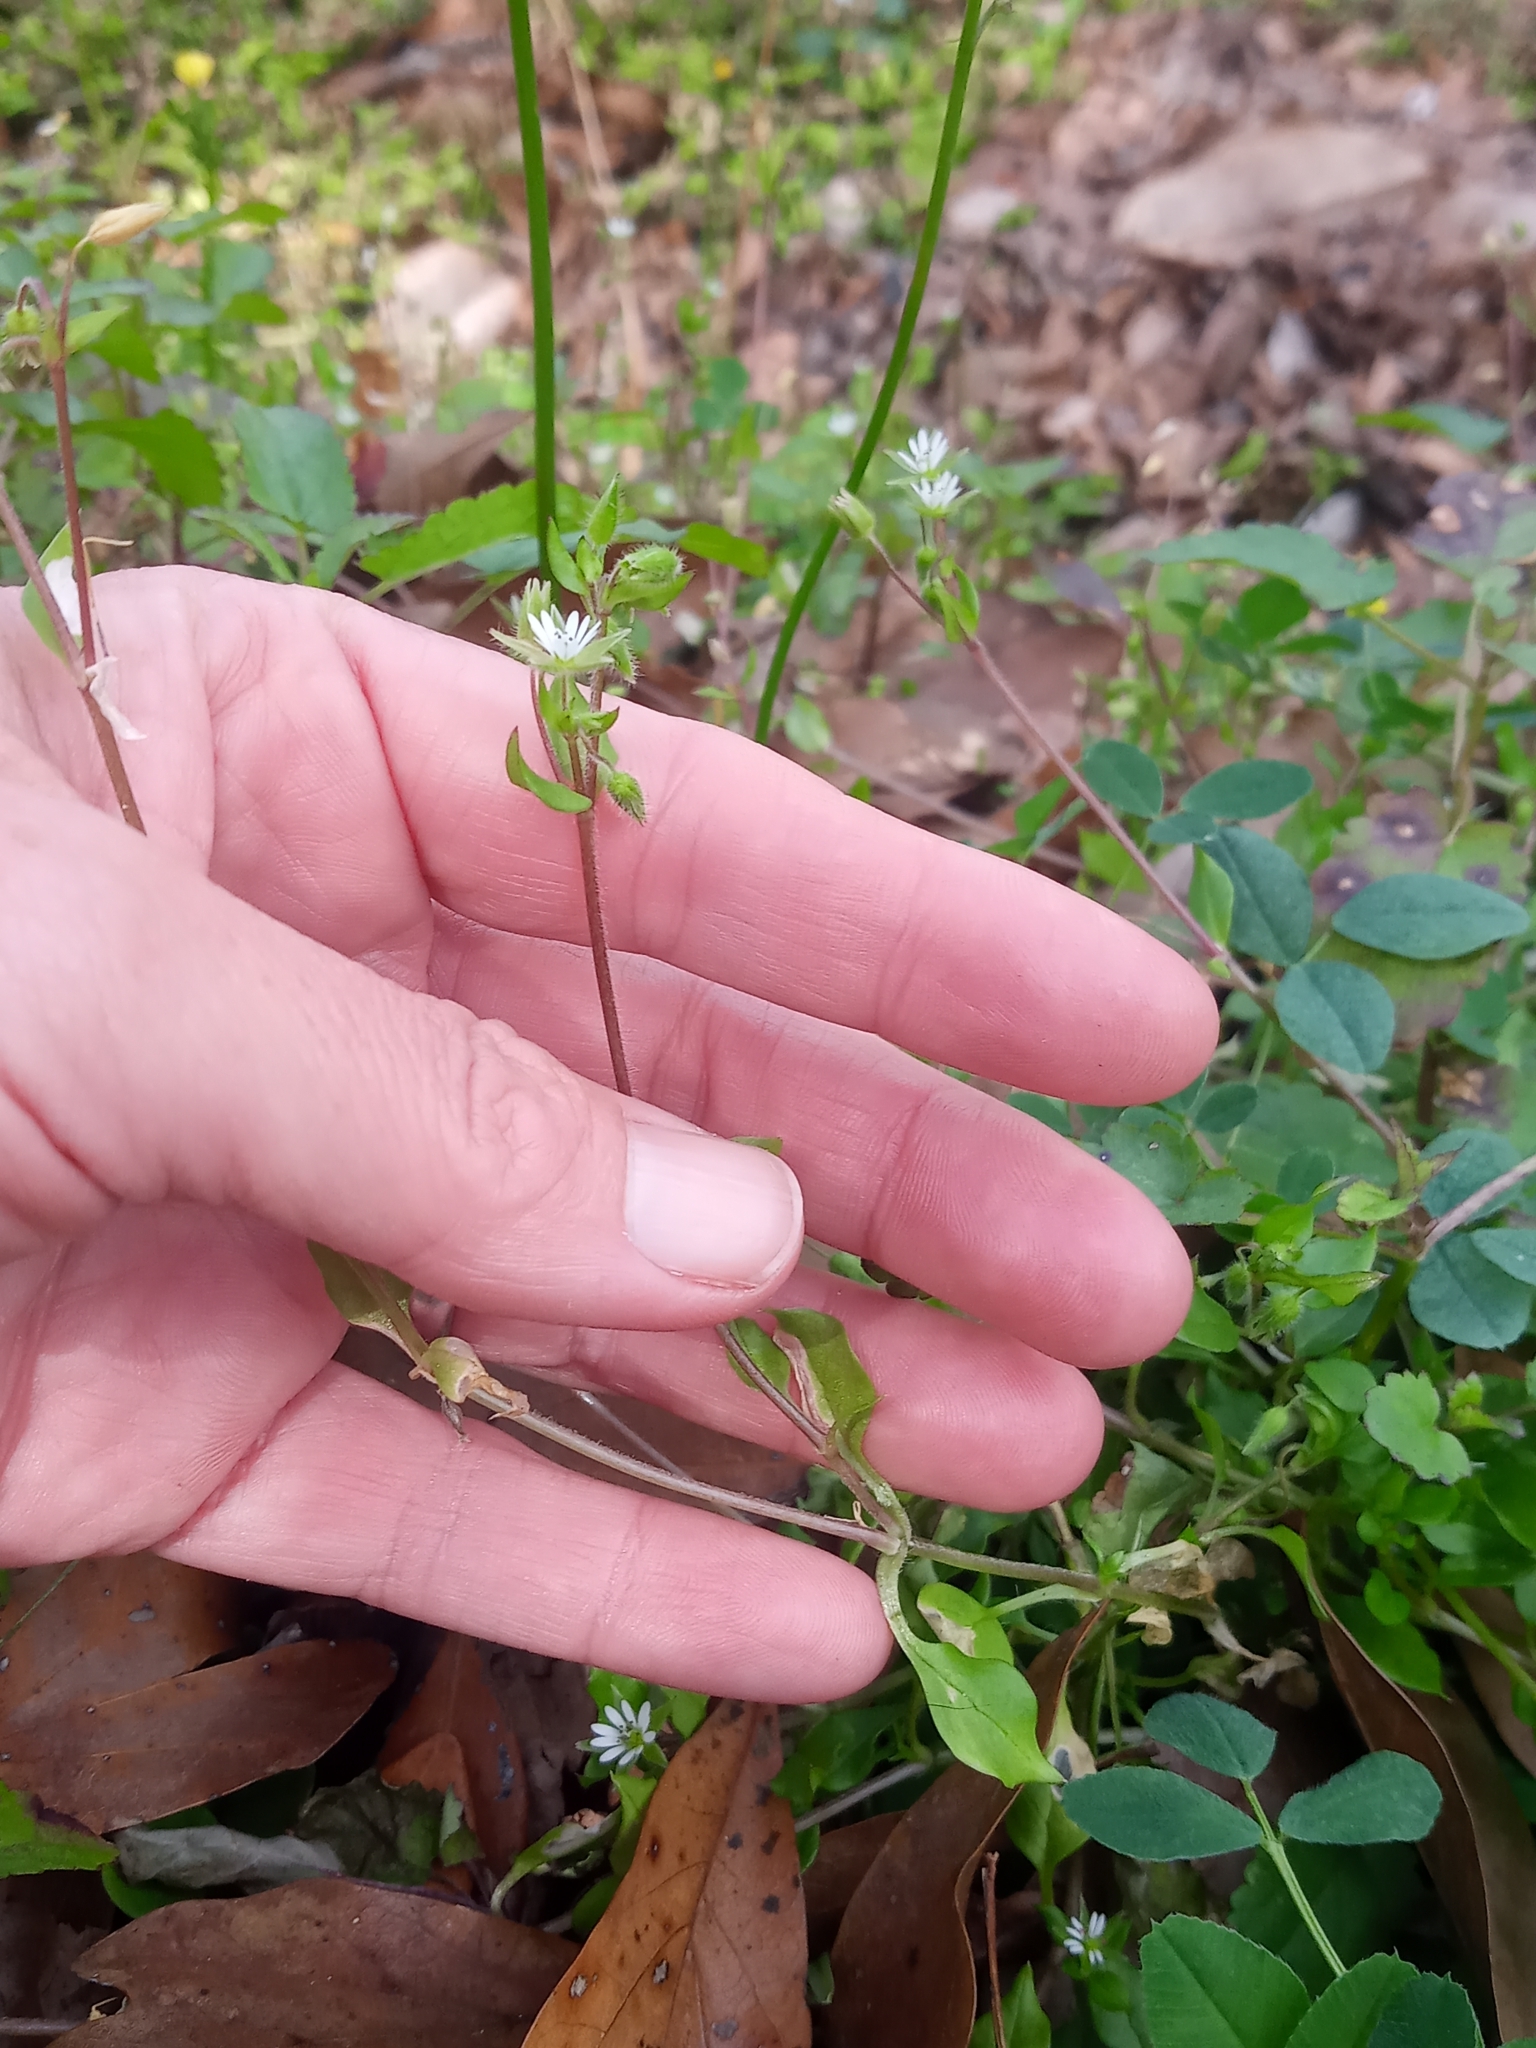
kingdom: Plantae
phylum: Tracheophyta
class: Magnoliopsida
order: Caryophyllales
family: Caryophyllaceae
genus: Stellaria
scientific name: Stellaria media
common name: Common chickweed
